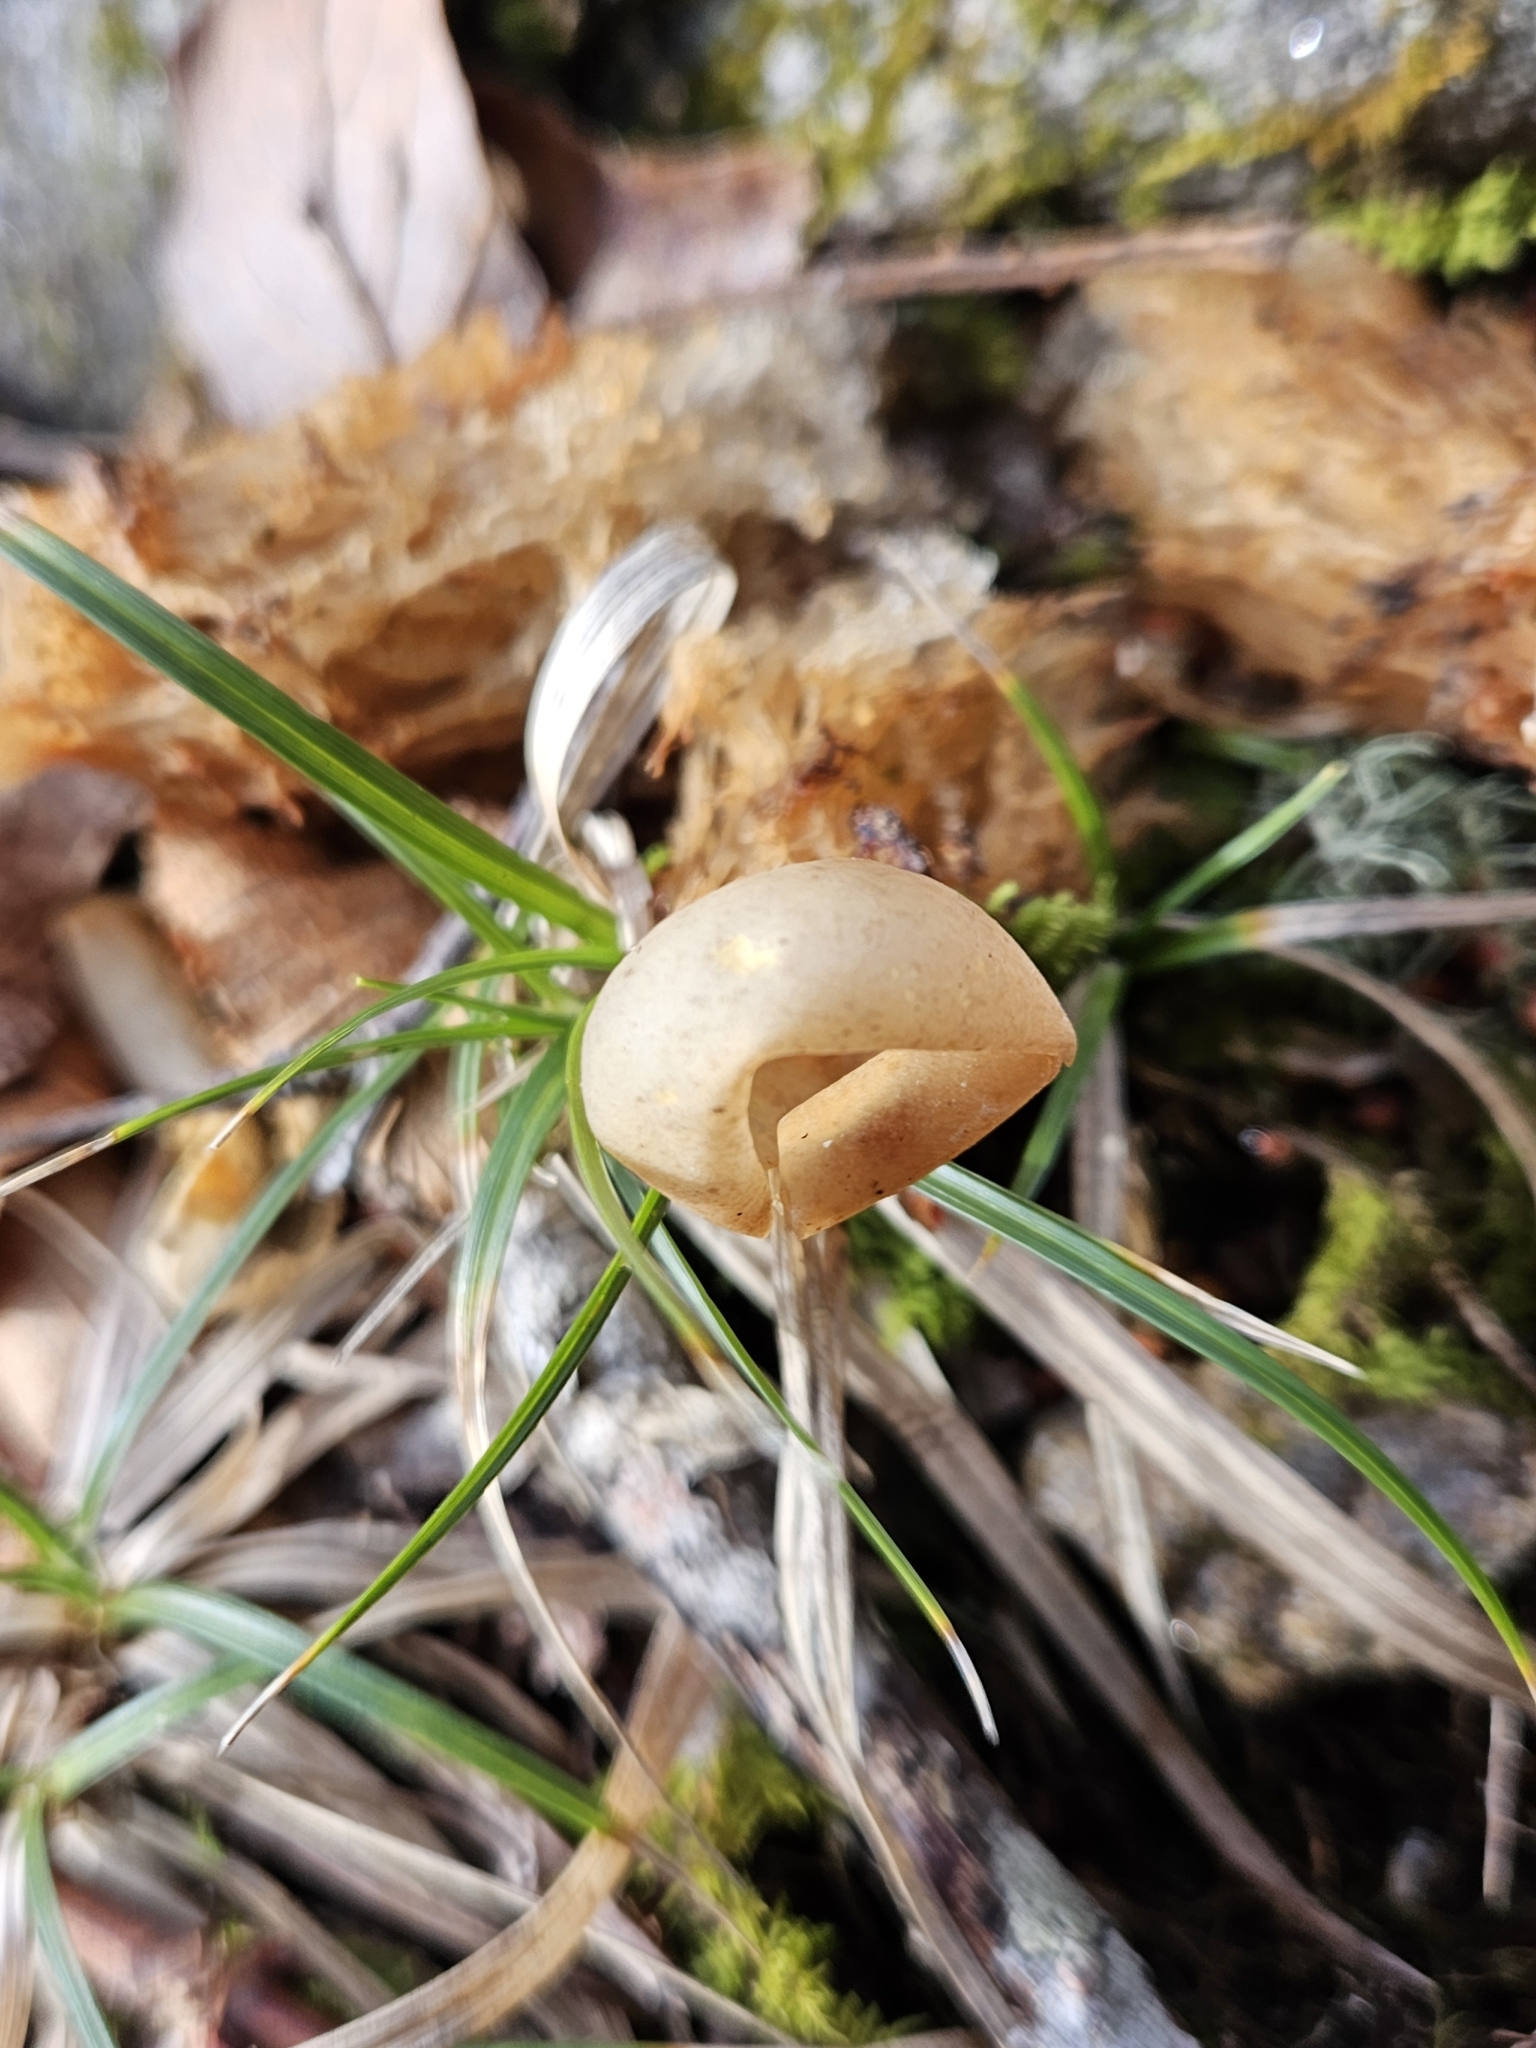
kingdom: Fungi
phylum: Basidiomycota
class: Agaricomycetes
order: Boletales
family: Calostomataceae
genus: Calostoma
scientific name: Calostoma cinnabarinum
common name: Stalked puffball-in-aspic
